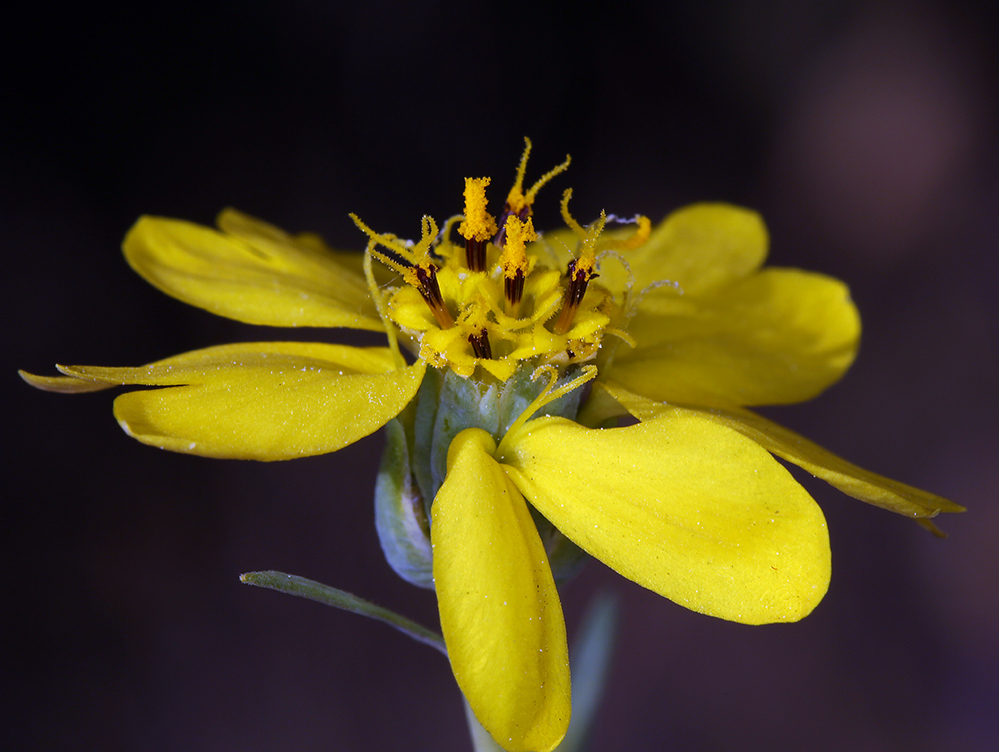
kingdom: Plantae
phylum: Tracheophyta
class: Magnoliopsida
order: Asterales
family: Asteraceae
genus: Calycadenia
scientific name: Calycadenia truncata
